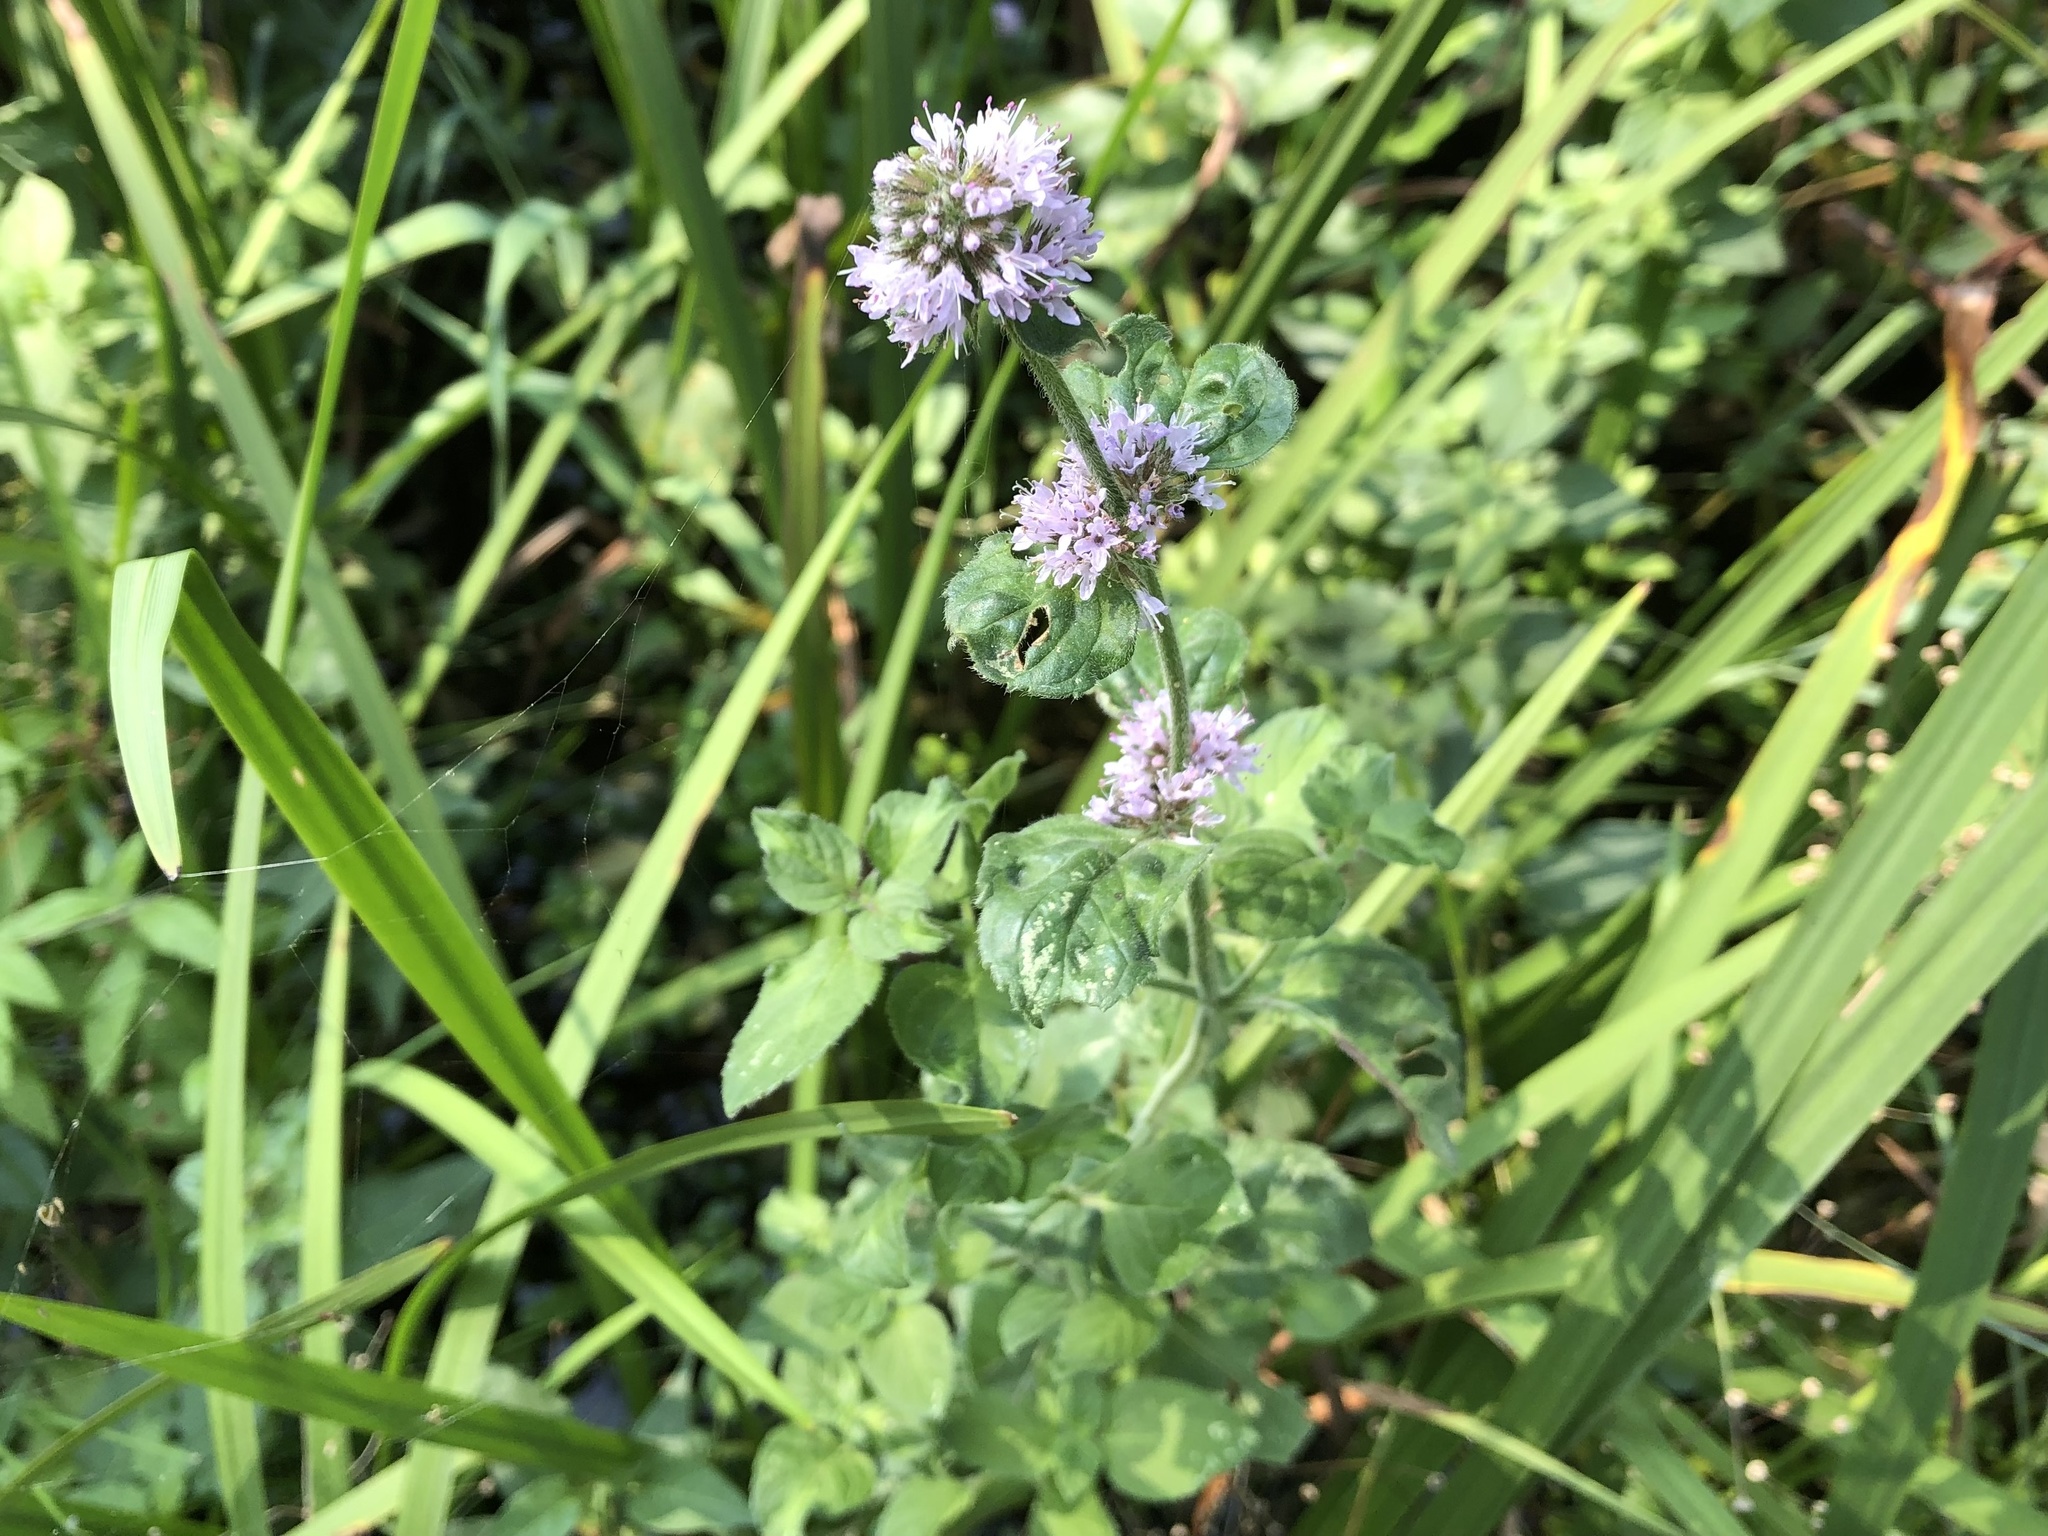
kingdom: Plantae
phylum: Tracheophyta
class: Magnoliopsida
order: Lamiales
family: Lamiaceae
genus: Mentha
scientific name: Mentha aquatica
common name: Water mint
